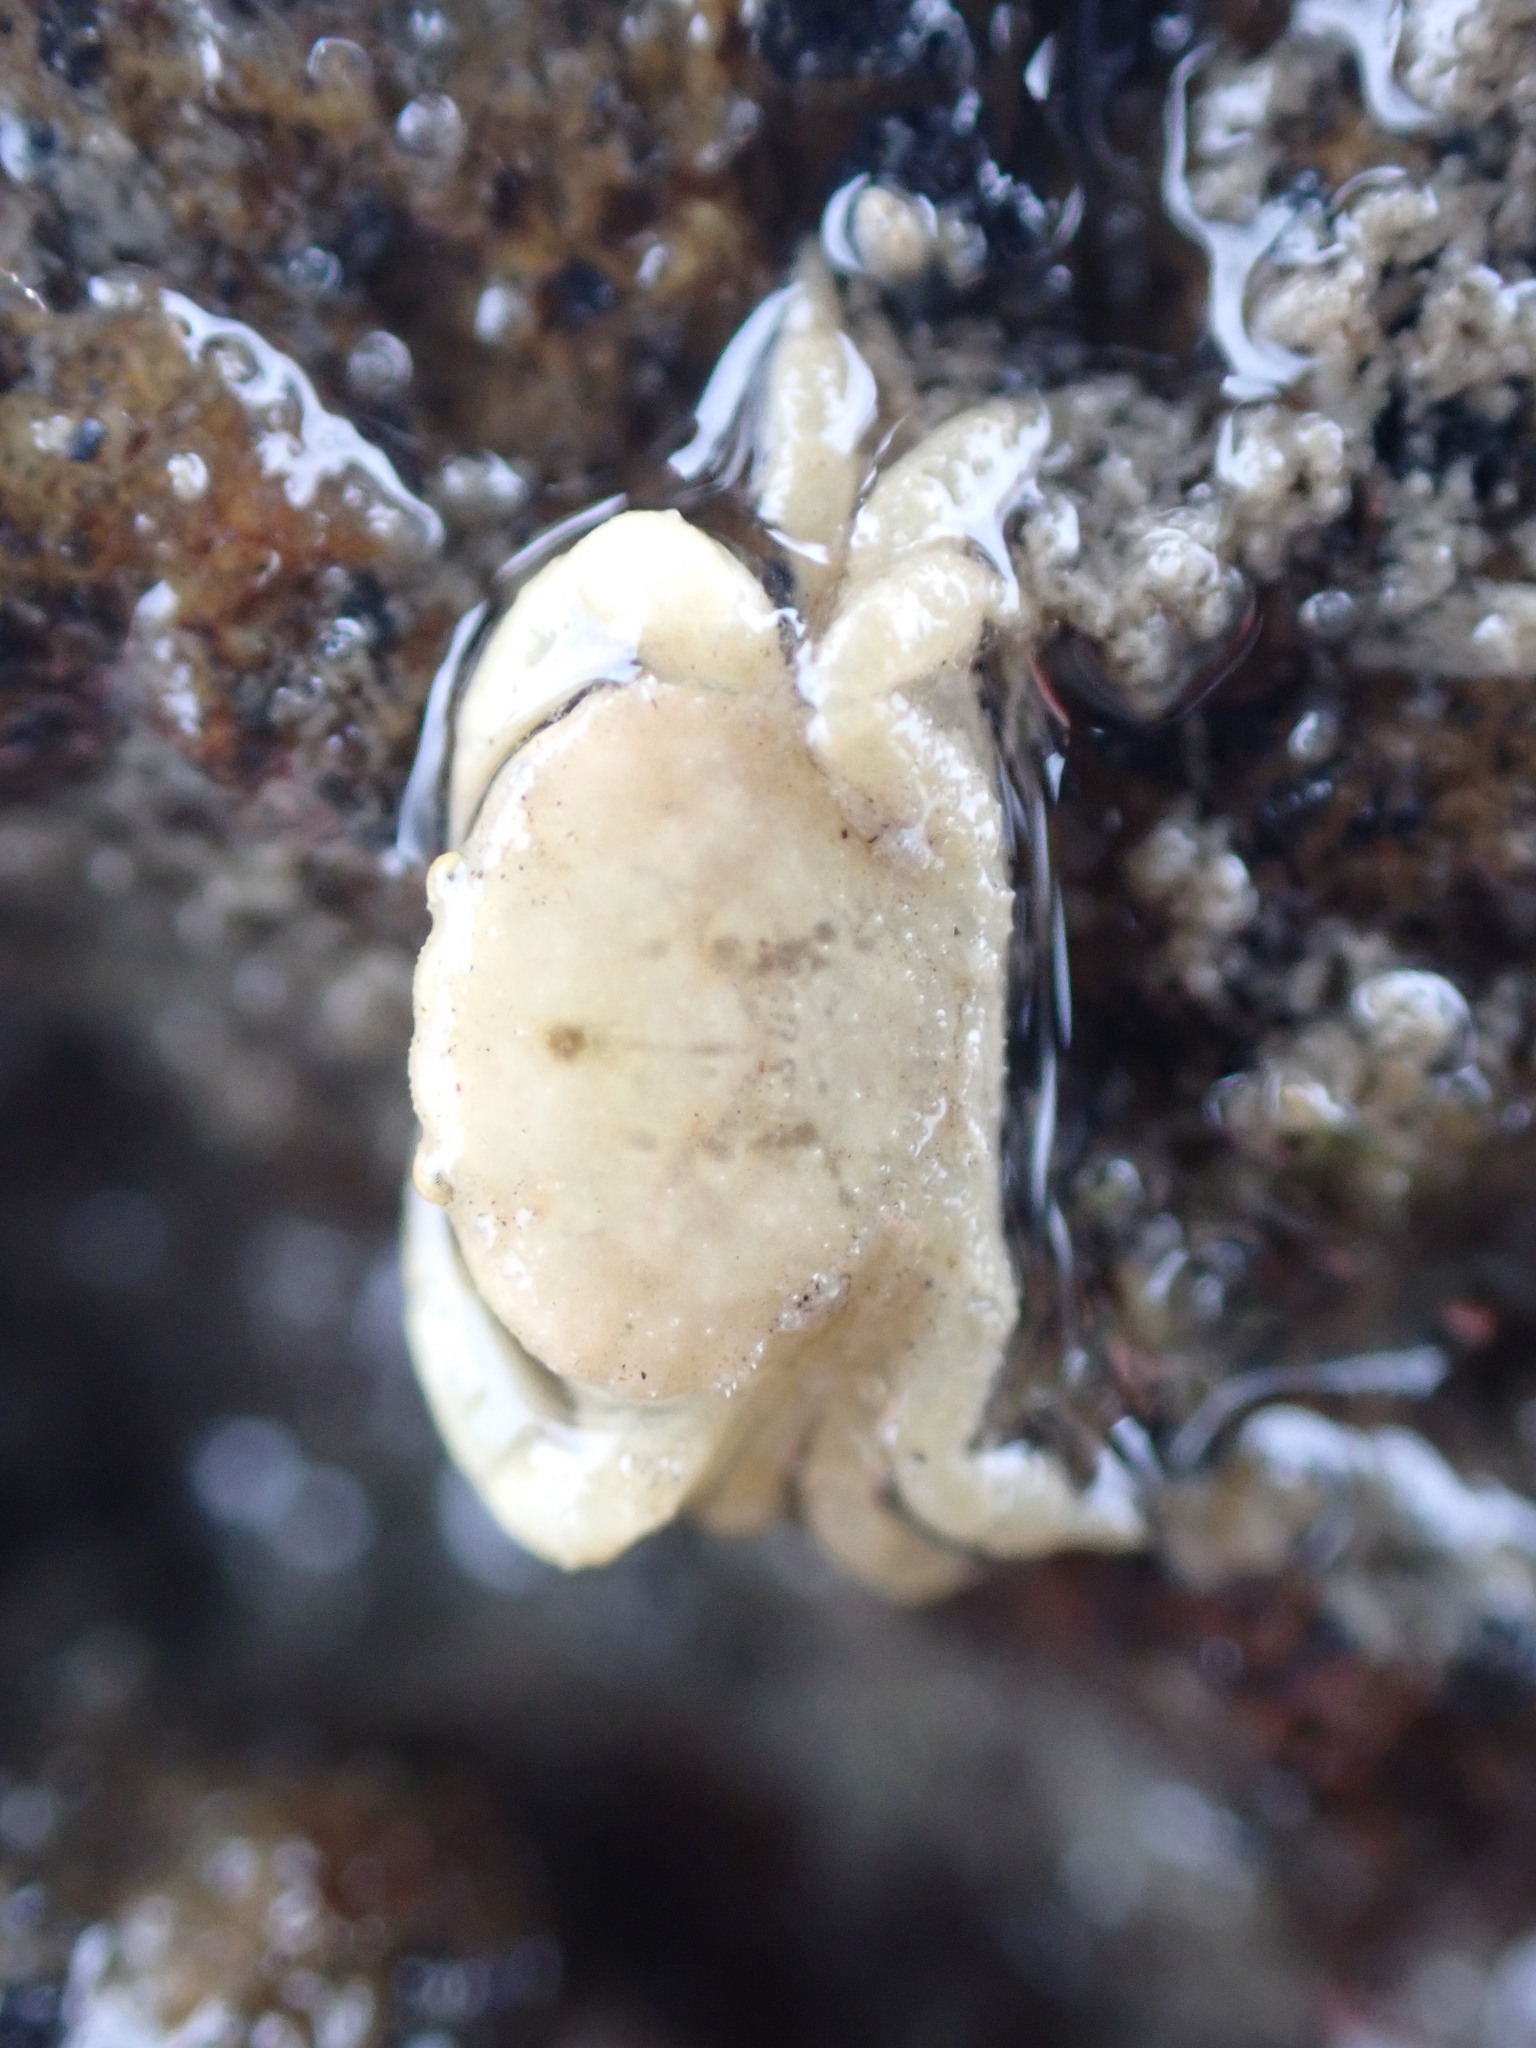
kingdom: Animalia
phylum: Arthropoda
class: Malacostraca
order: Decapoda
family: Heteroziidae
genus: Heterozius
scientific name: Heterozius rotundifrons
